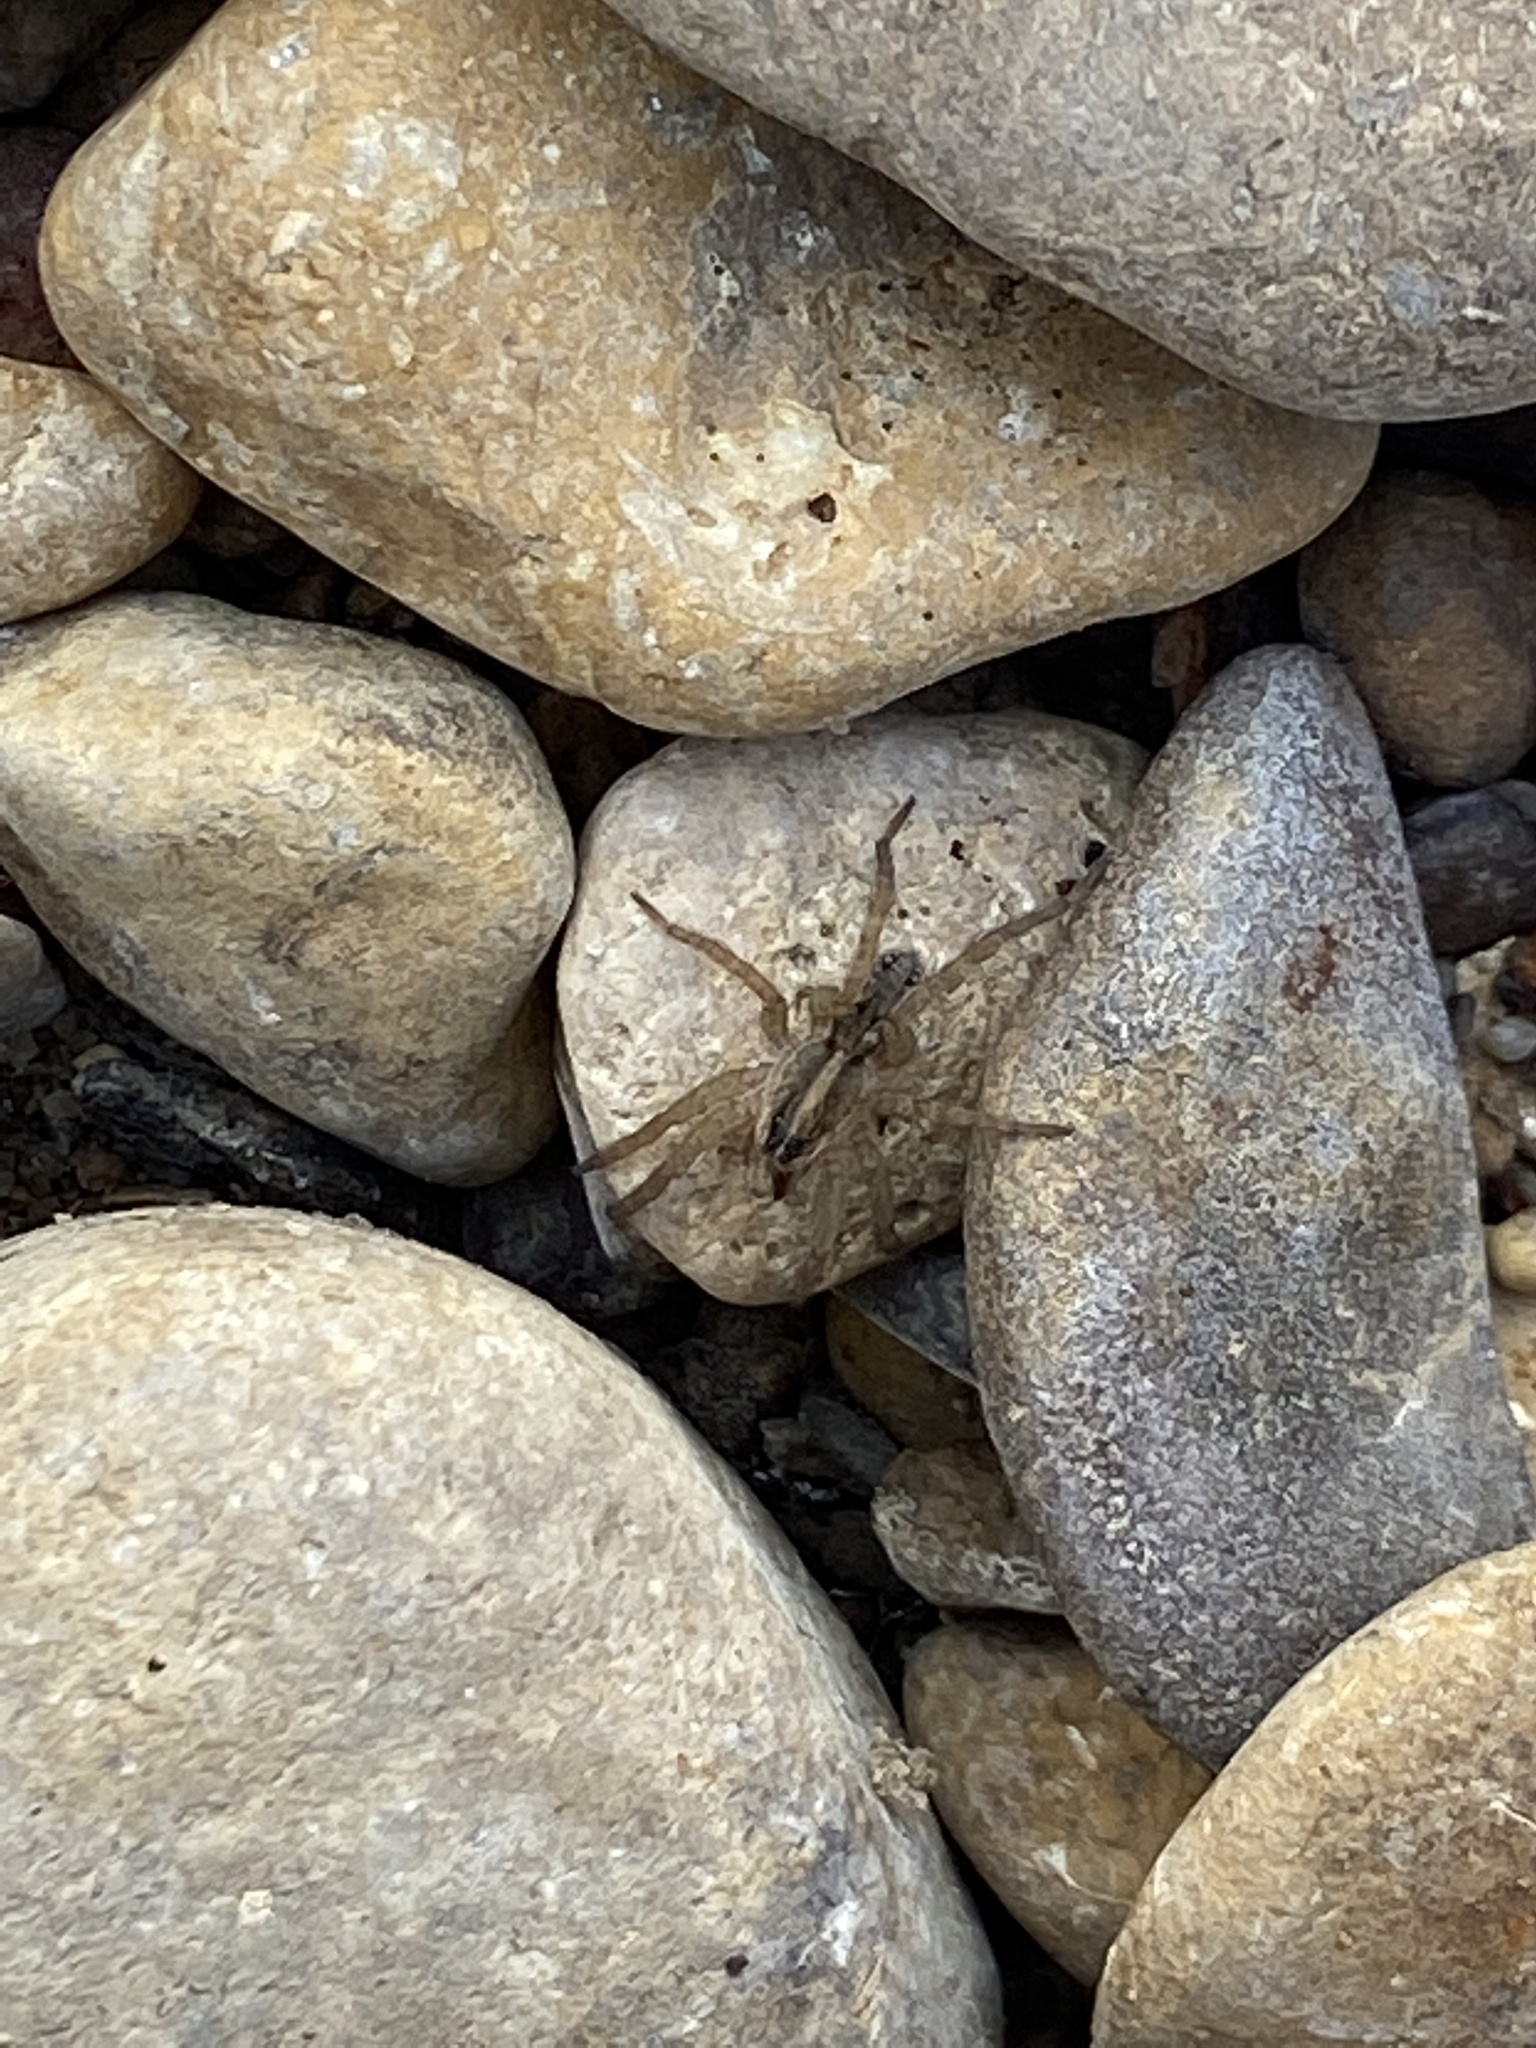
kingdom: Animalia
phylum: Arthropoda
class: Arachnida
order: Araneae
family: Lycosidae
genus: Tigrosa
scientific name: Tigrosa annexa
